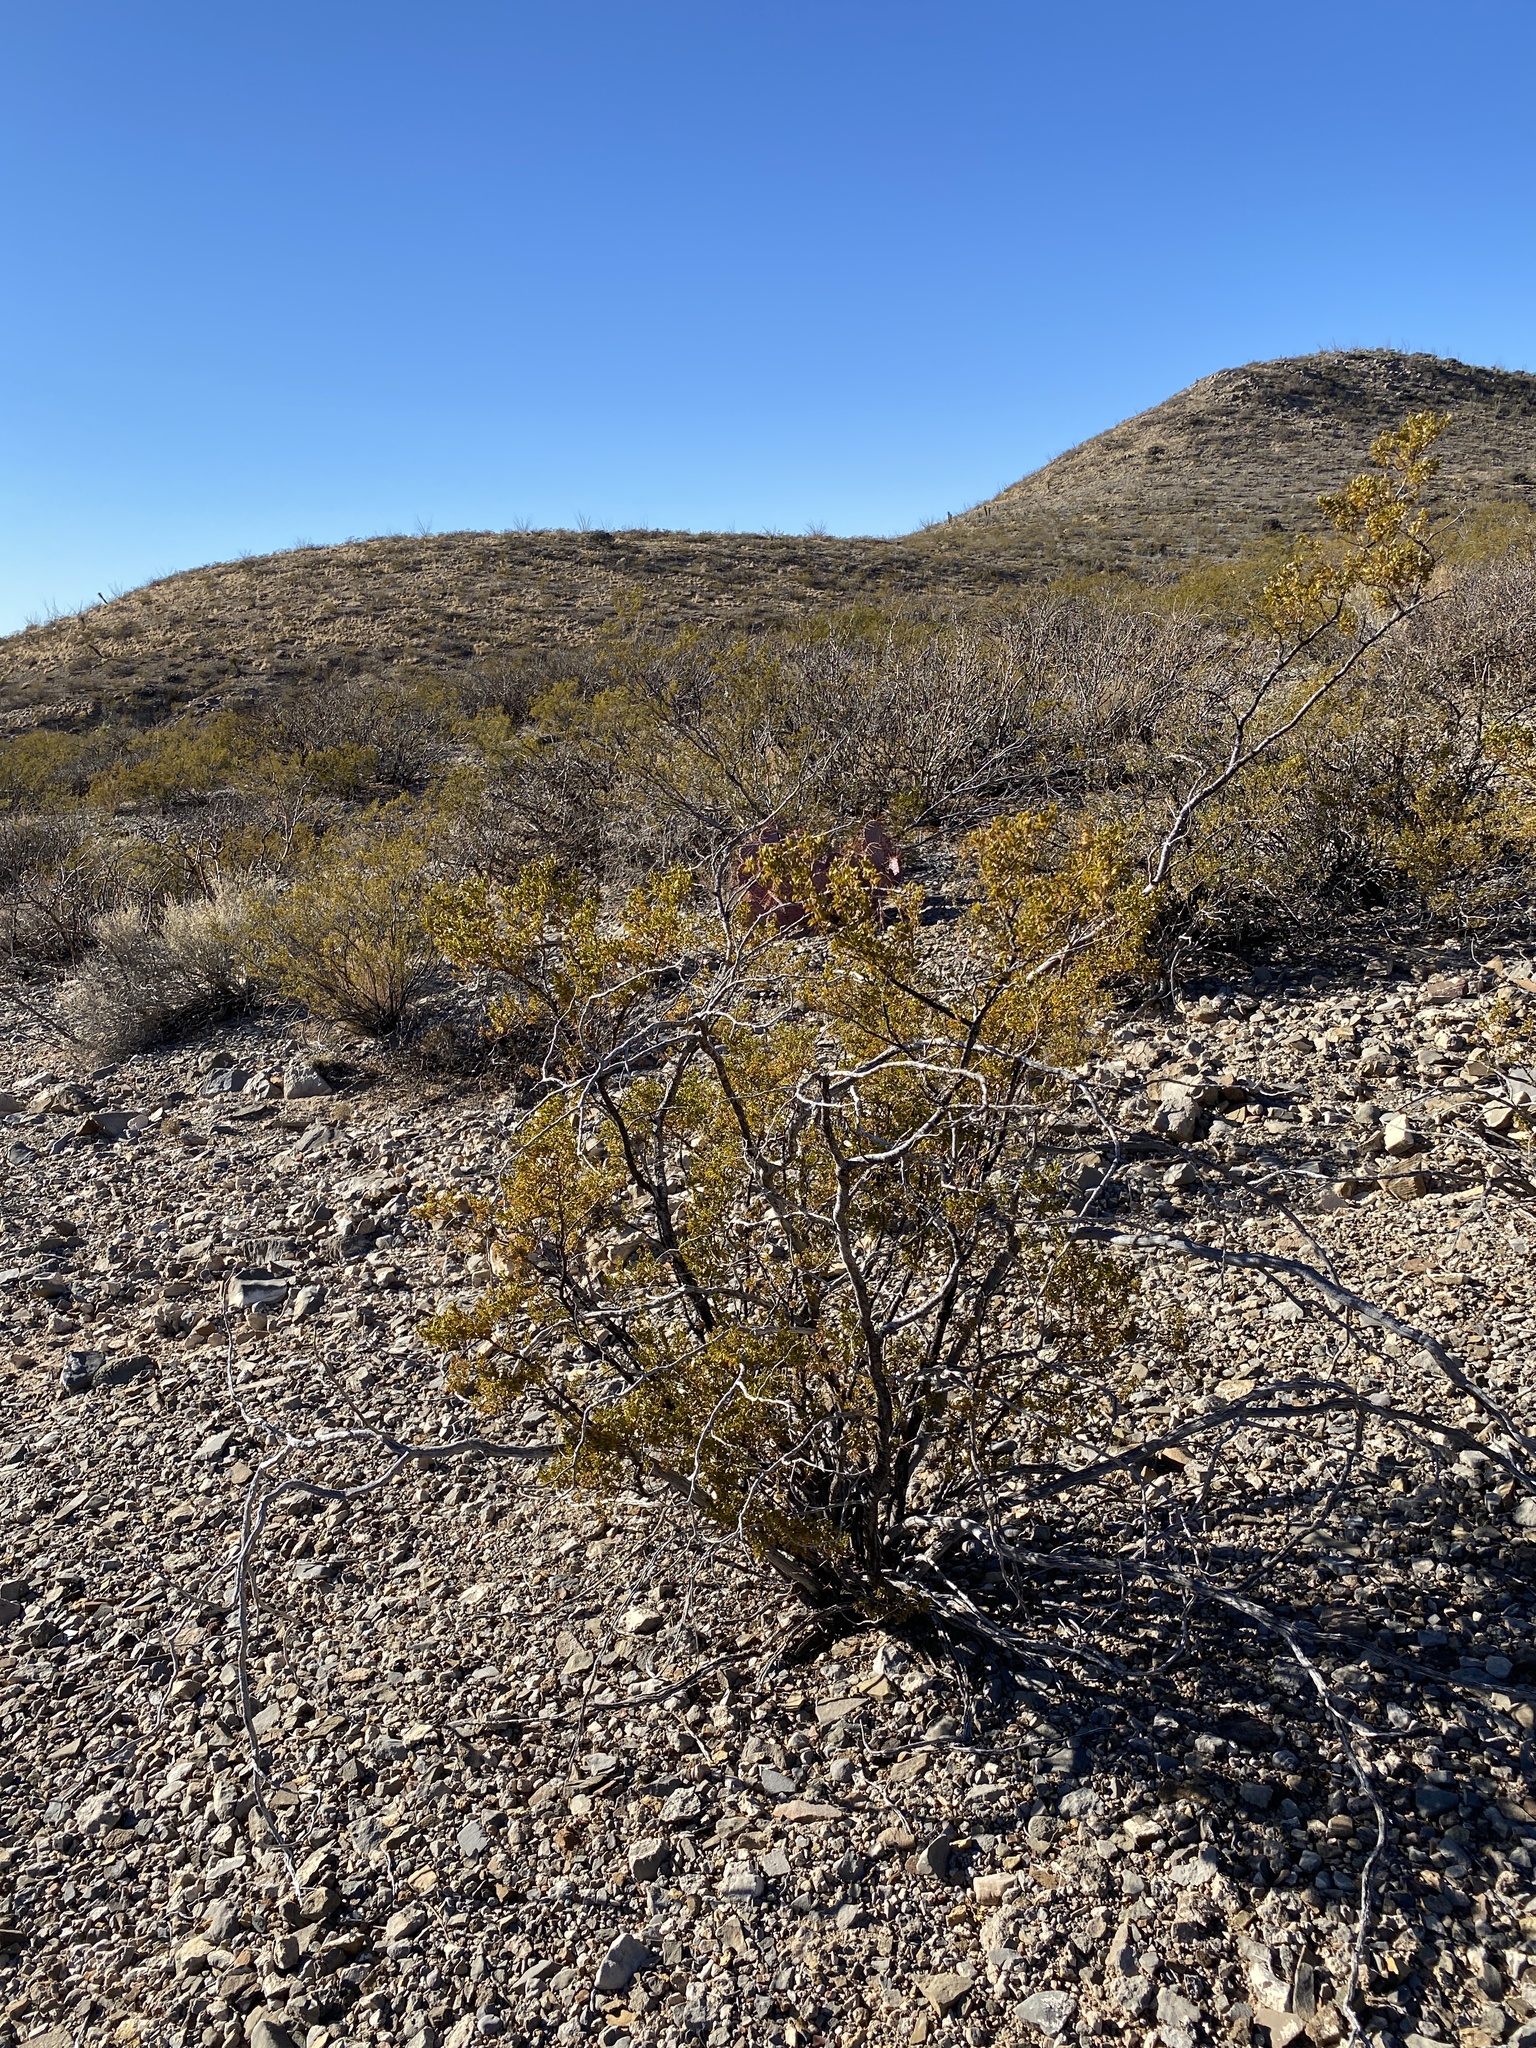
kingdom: Plantae
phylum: Tracheophyta
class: Magnoliopsida
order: Zygophyllales
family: Zygophyllaceae
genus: Larrea
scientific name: Larrea tridentata
